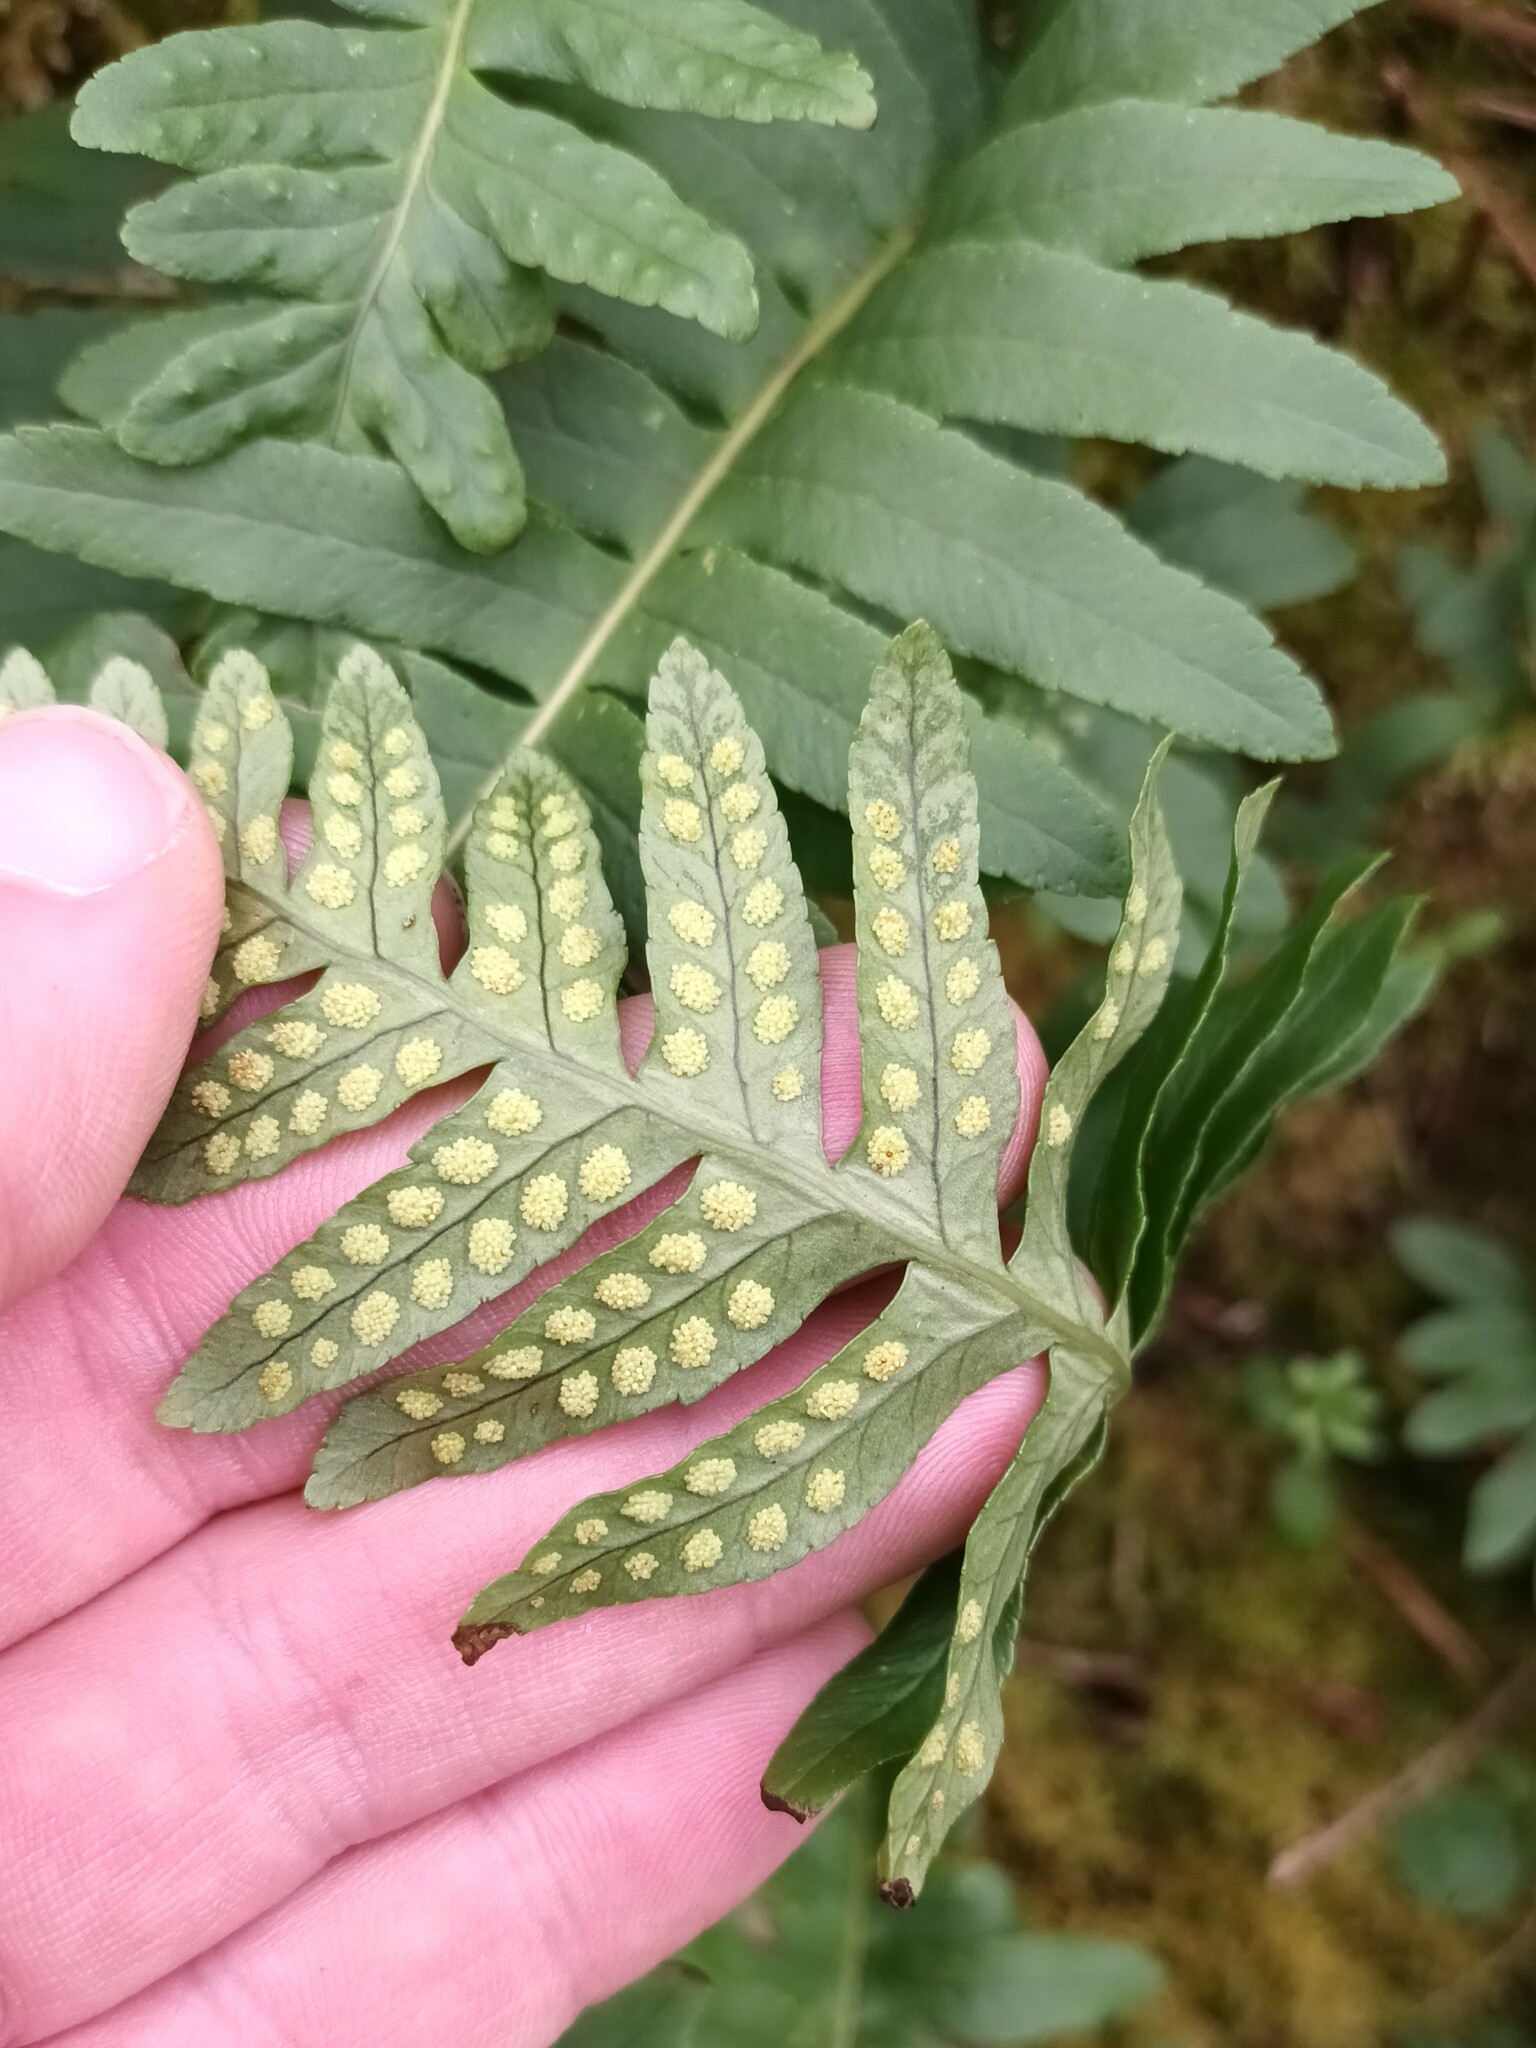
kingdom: Plantae
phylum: Tracheophyta
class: Polypodiopsida
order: Polypodiales
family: Polypodiaceae
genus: Polypodium
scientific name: Polypodium
